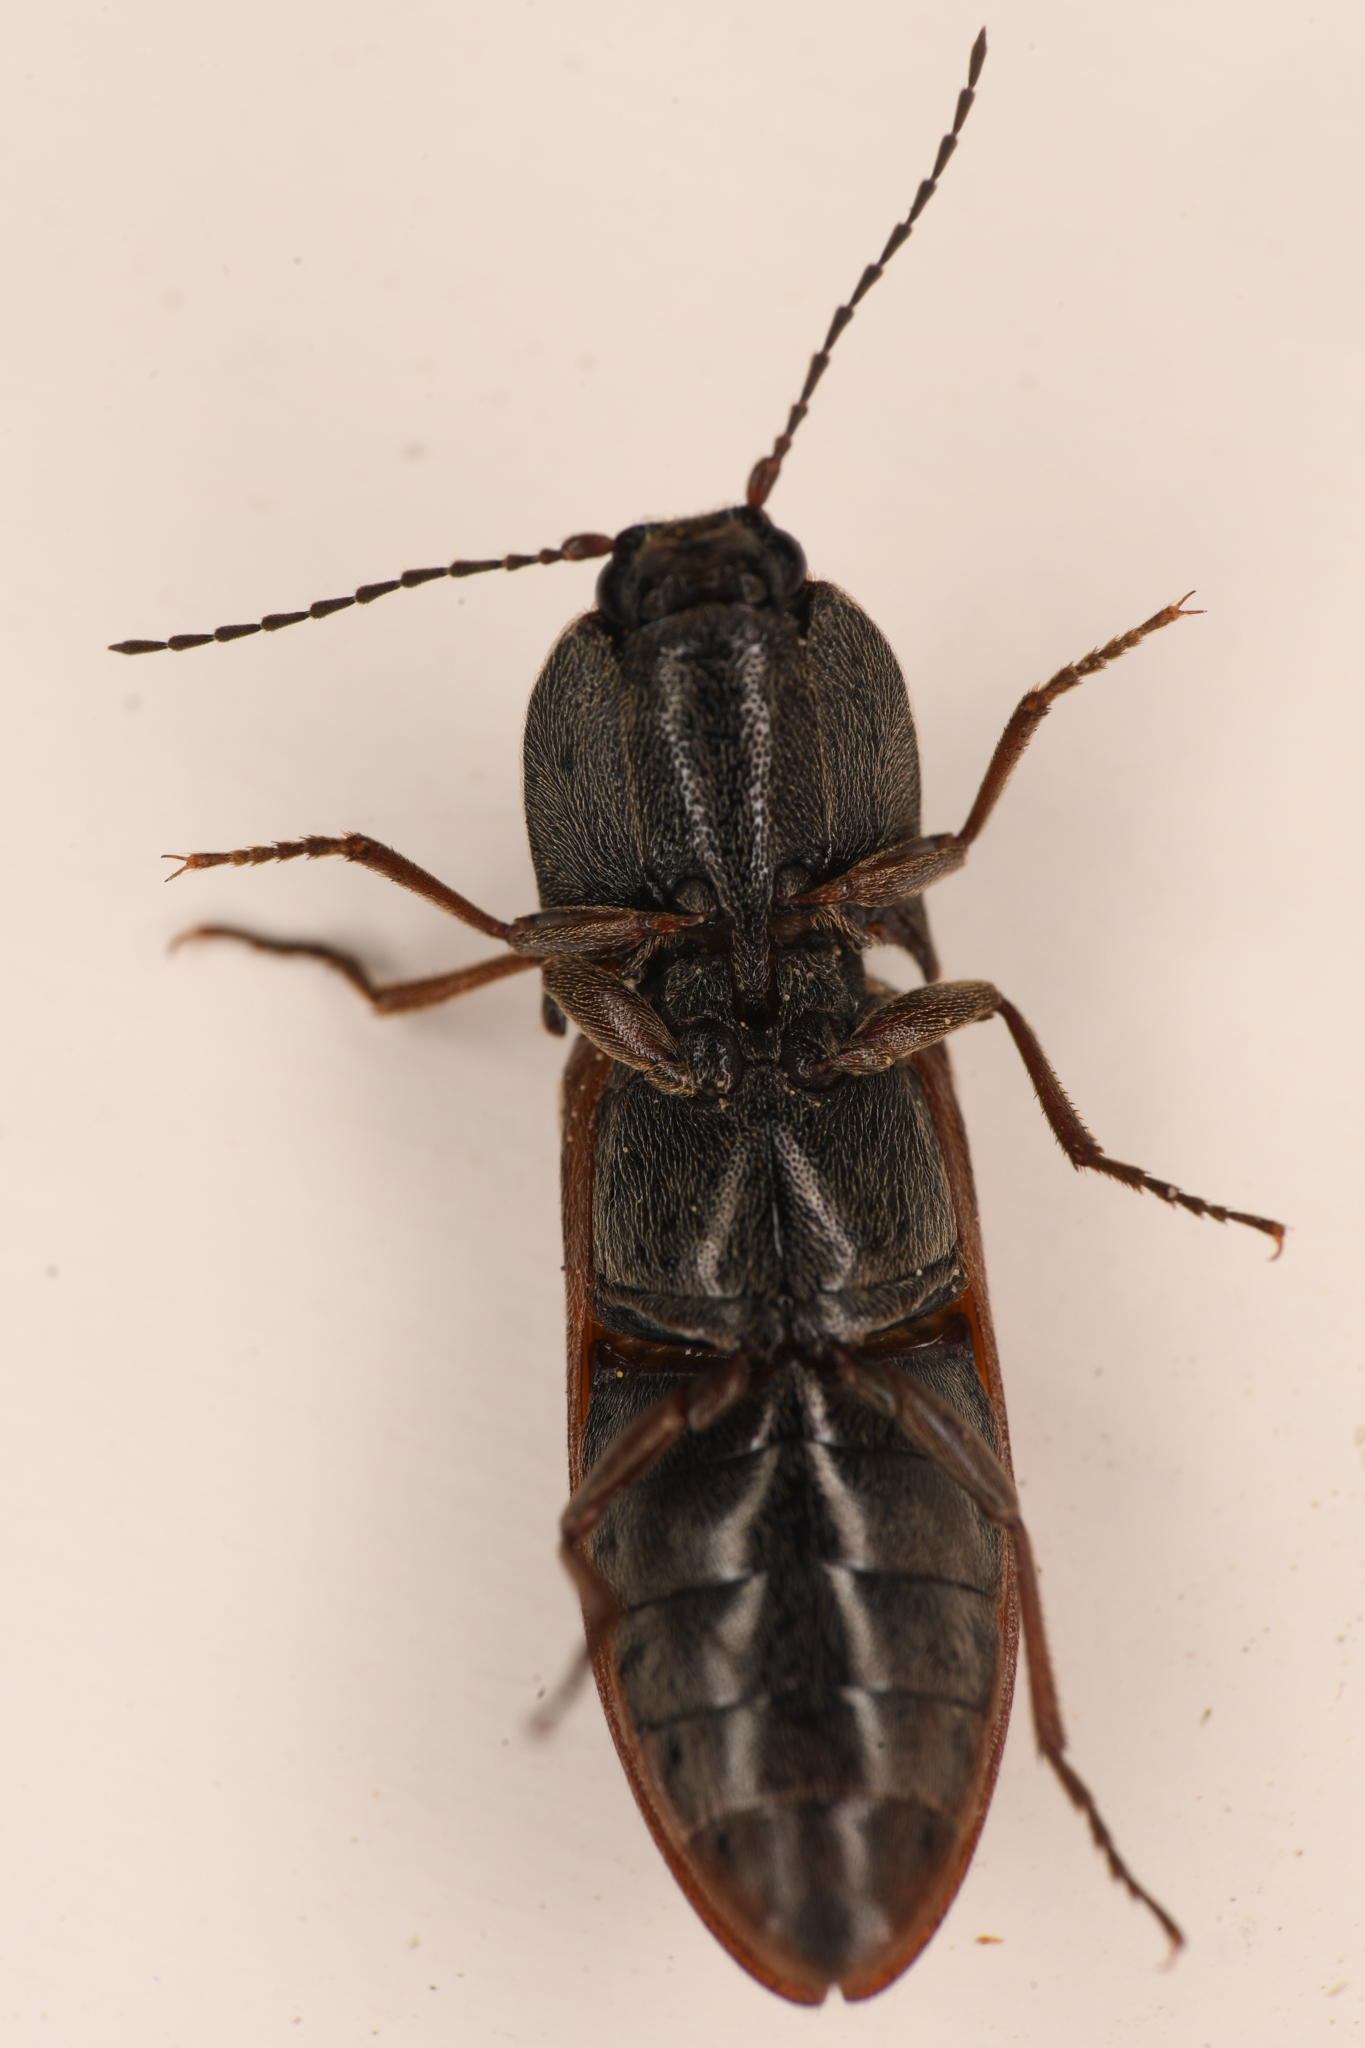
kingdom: Animalia
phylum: Arthropoda
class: Insecta
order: Coleoptera
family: Elateridae
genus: Proludius
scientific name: Proludius comes
